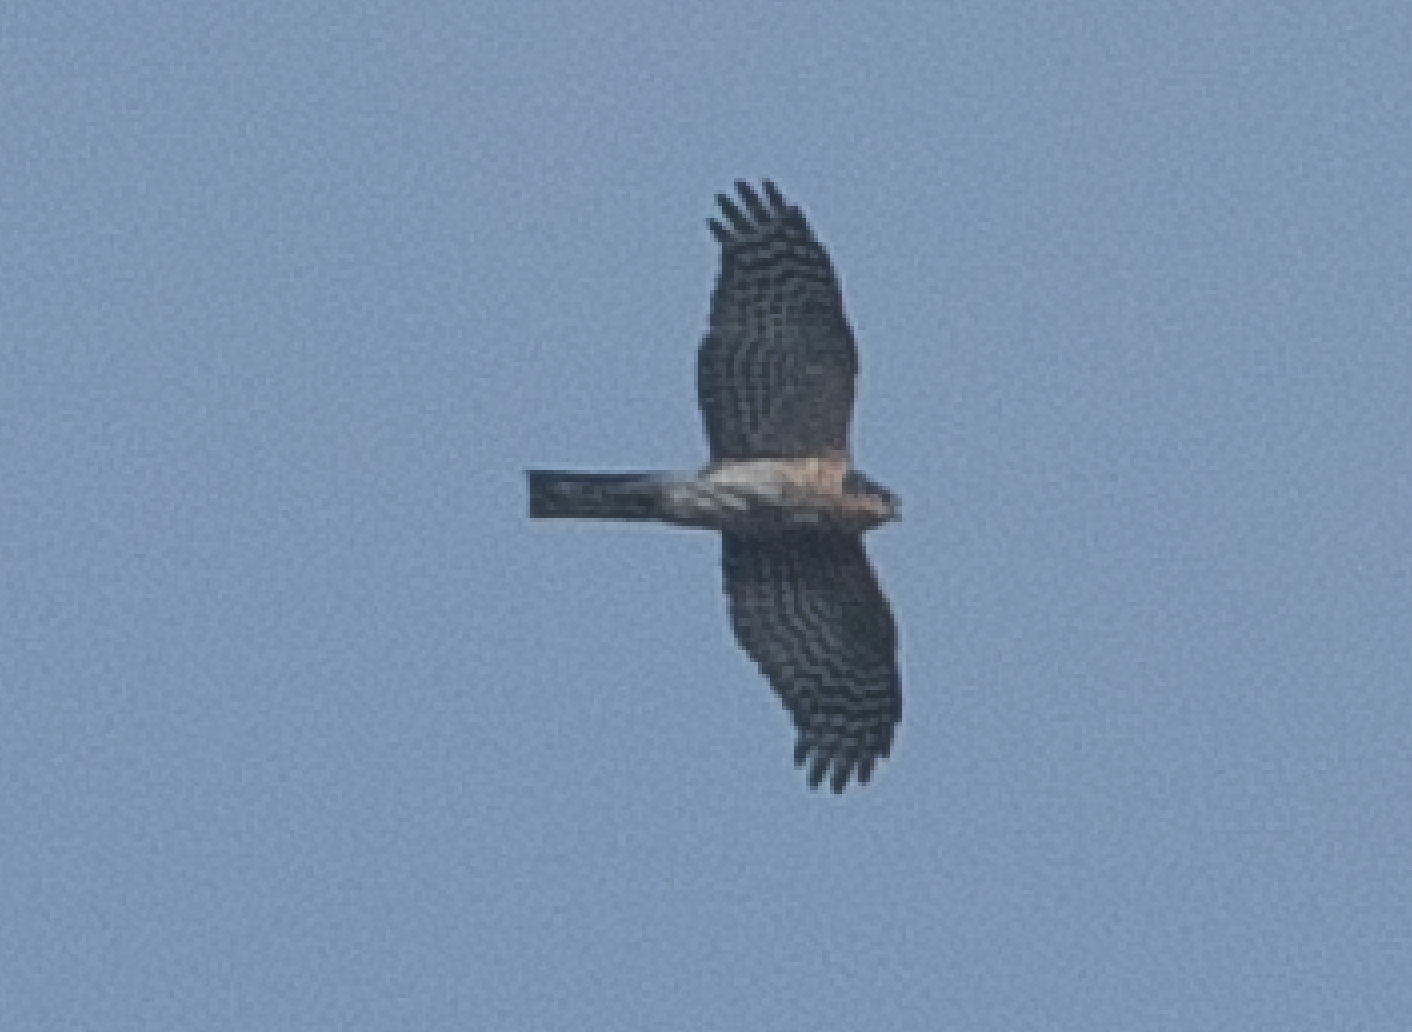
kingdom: Animalia
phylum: Chordata
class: Aves
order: Accipitriformes
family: Accipitridae
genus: Accipiter
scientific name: Accipiter nisus
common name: Eurasian sparrowhawk
